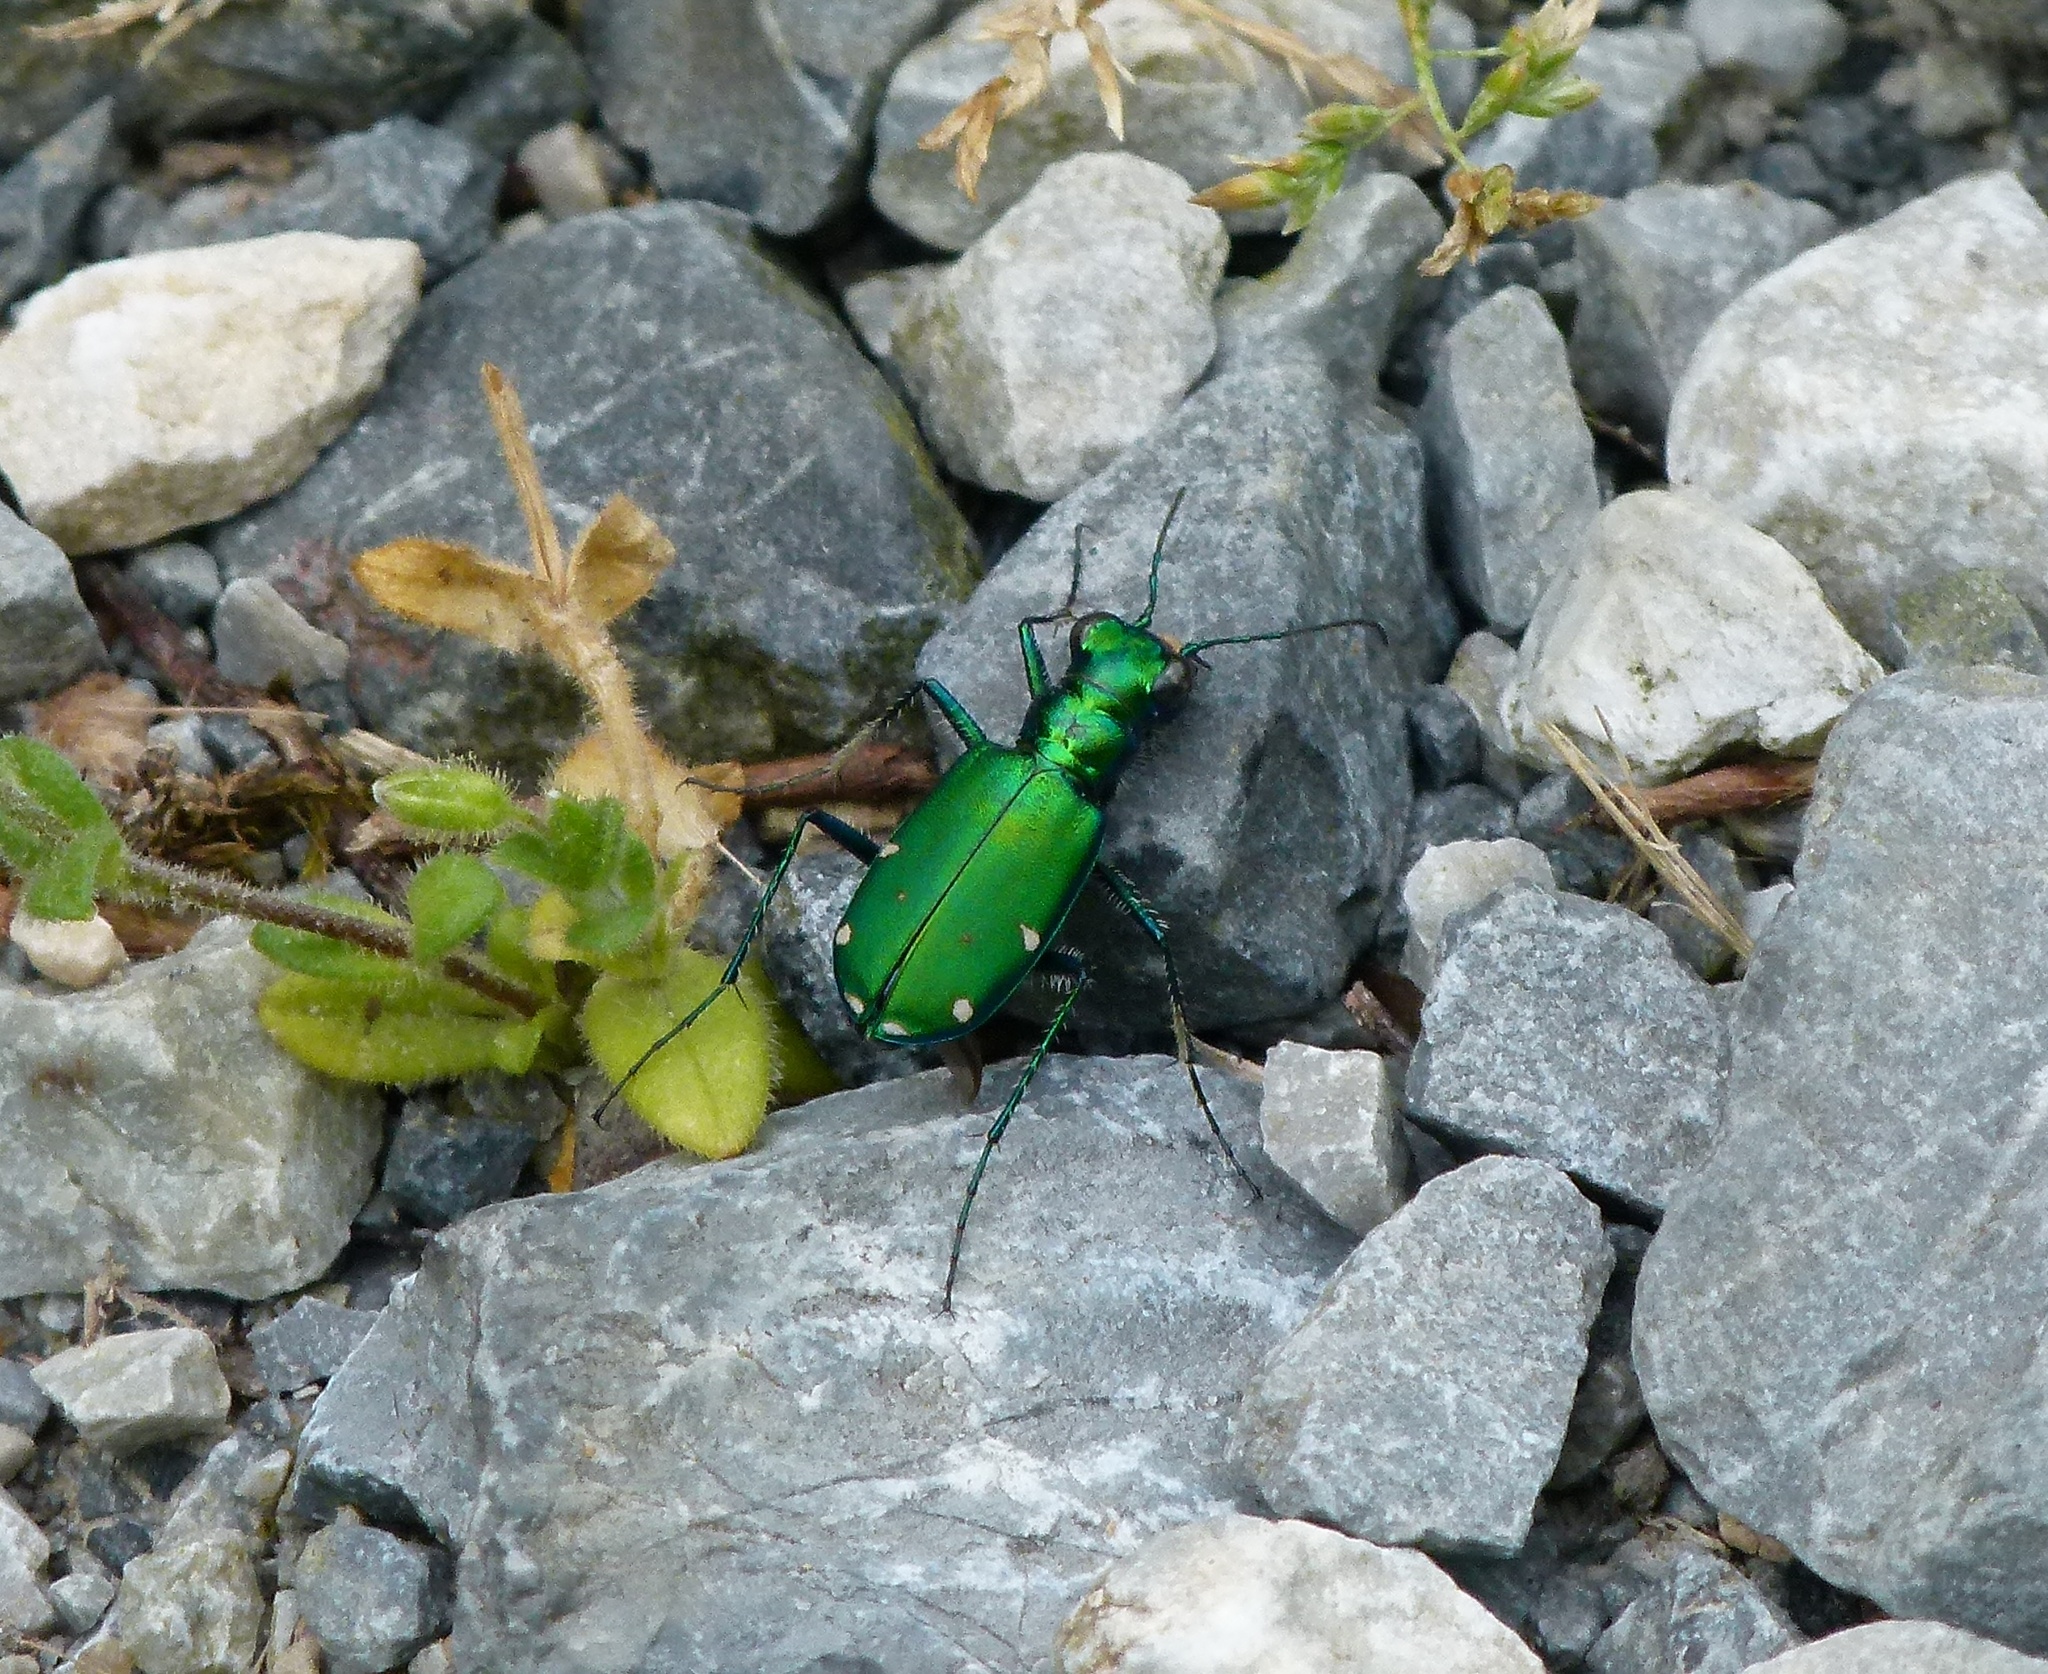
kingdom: Animalia
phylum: Arthropoda
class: Insecta
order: Coleoptera
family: Carabidae
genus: Cicindela
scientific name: Cicindela sexguttata
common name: Six-spotted tiger beetle
